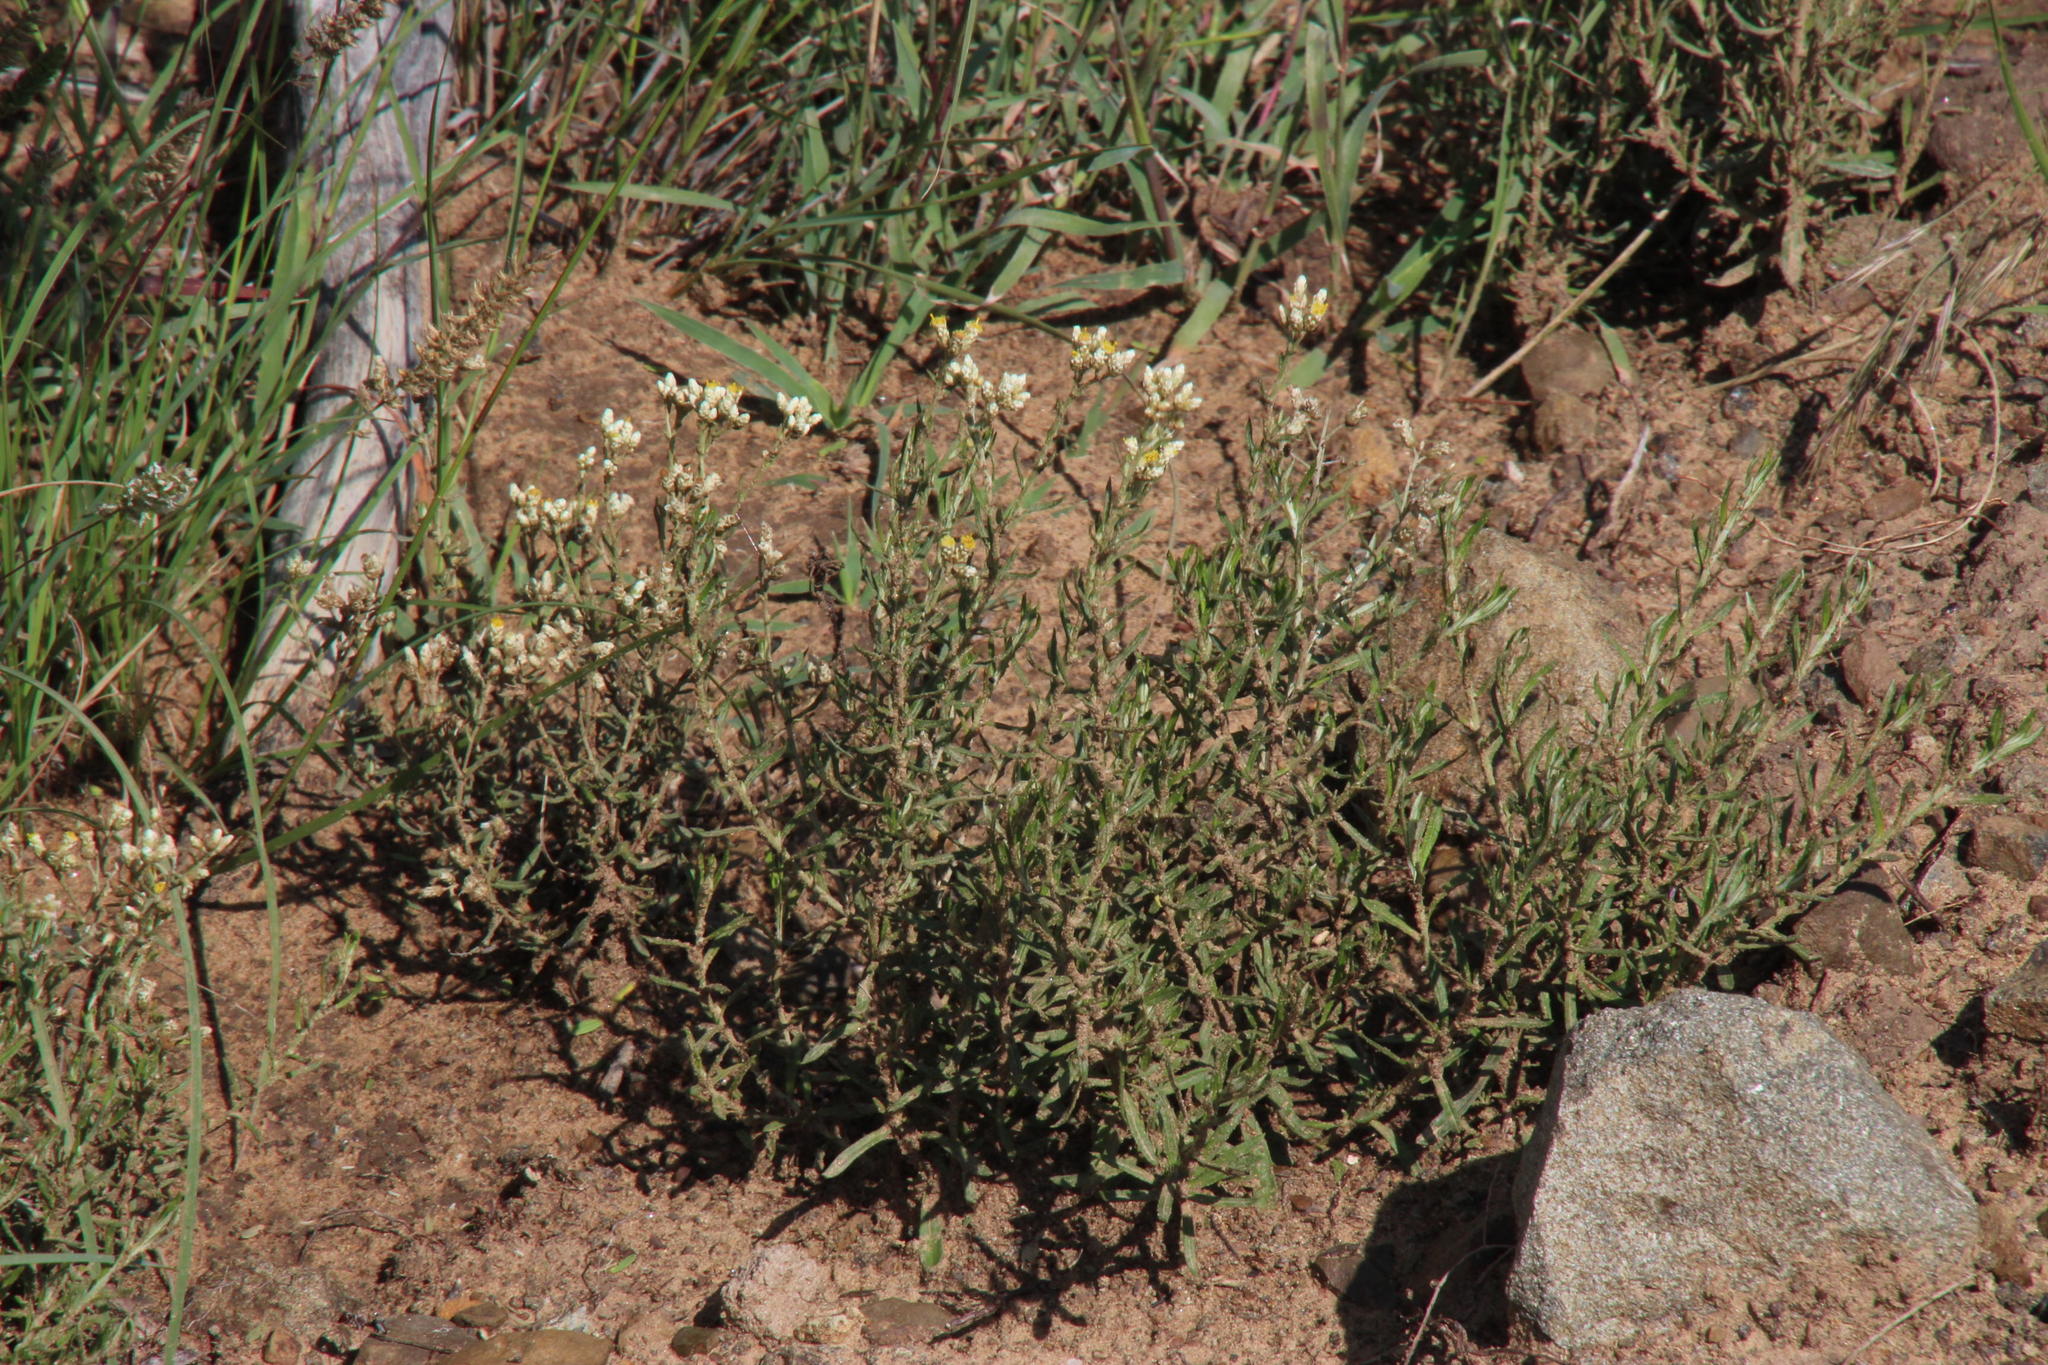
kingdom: Plantae
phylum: Tracheophyta
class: Magnoliopsida
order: Asterales
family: Asteraceae
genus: Helichrysum
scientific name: Helichrysum rosum
